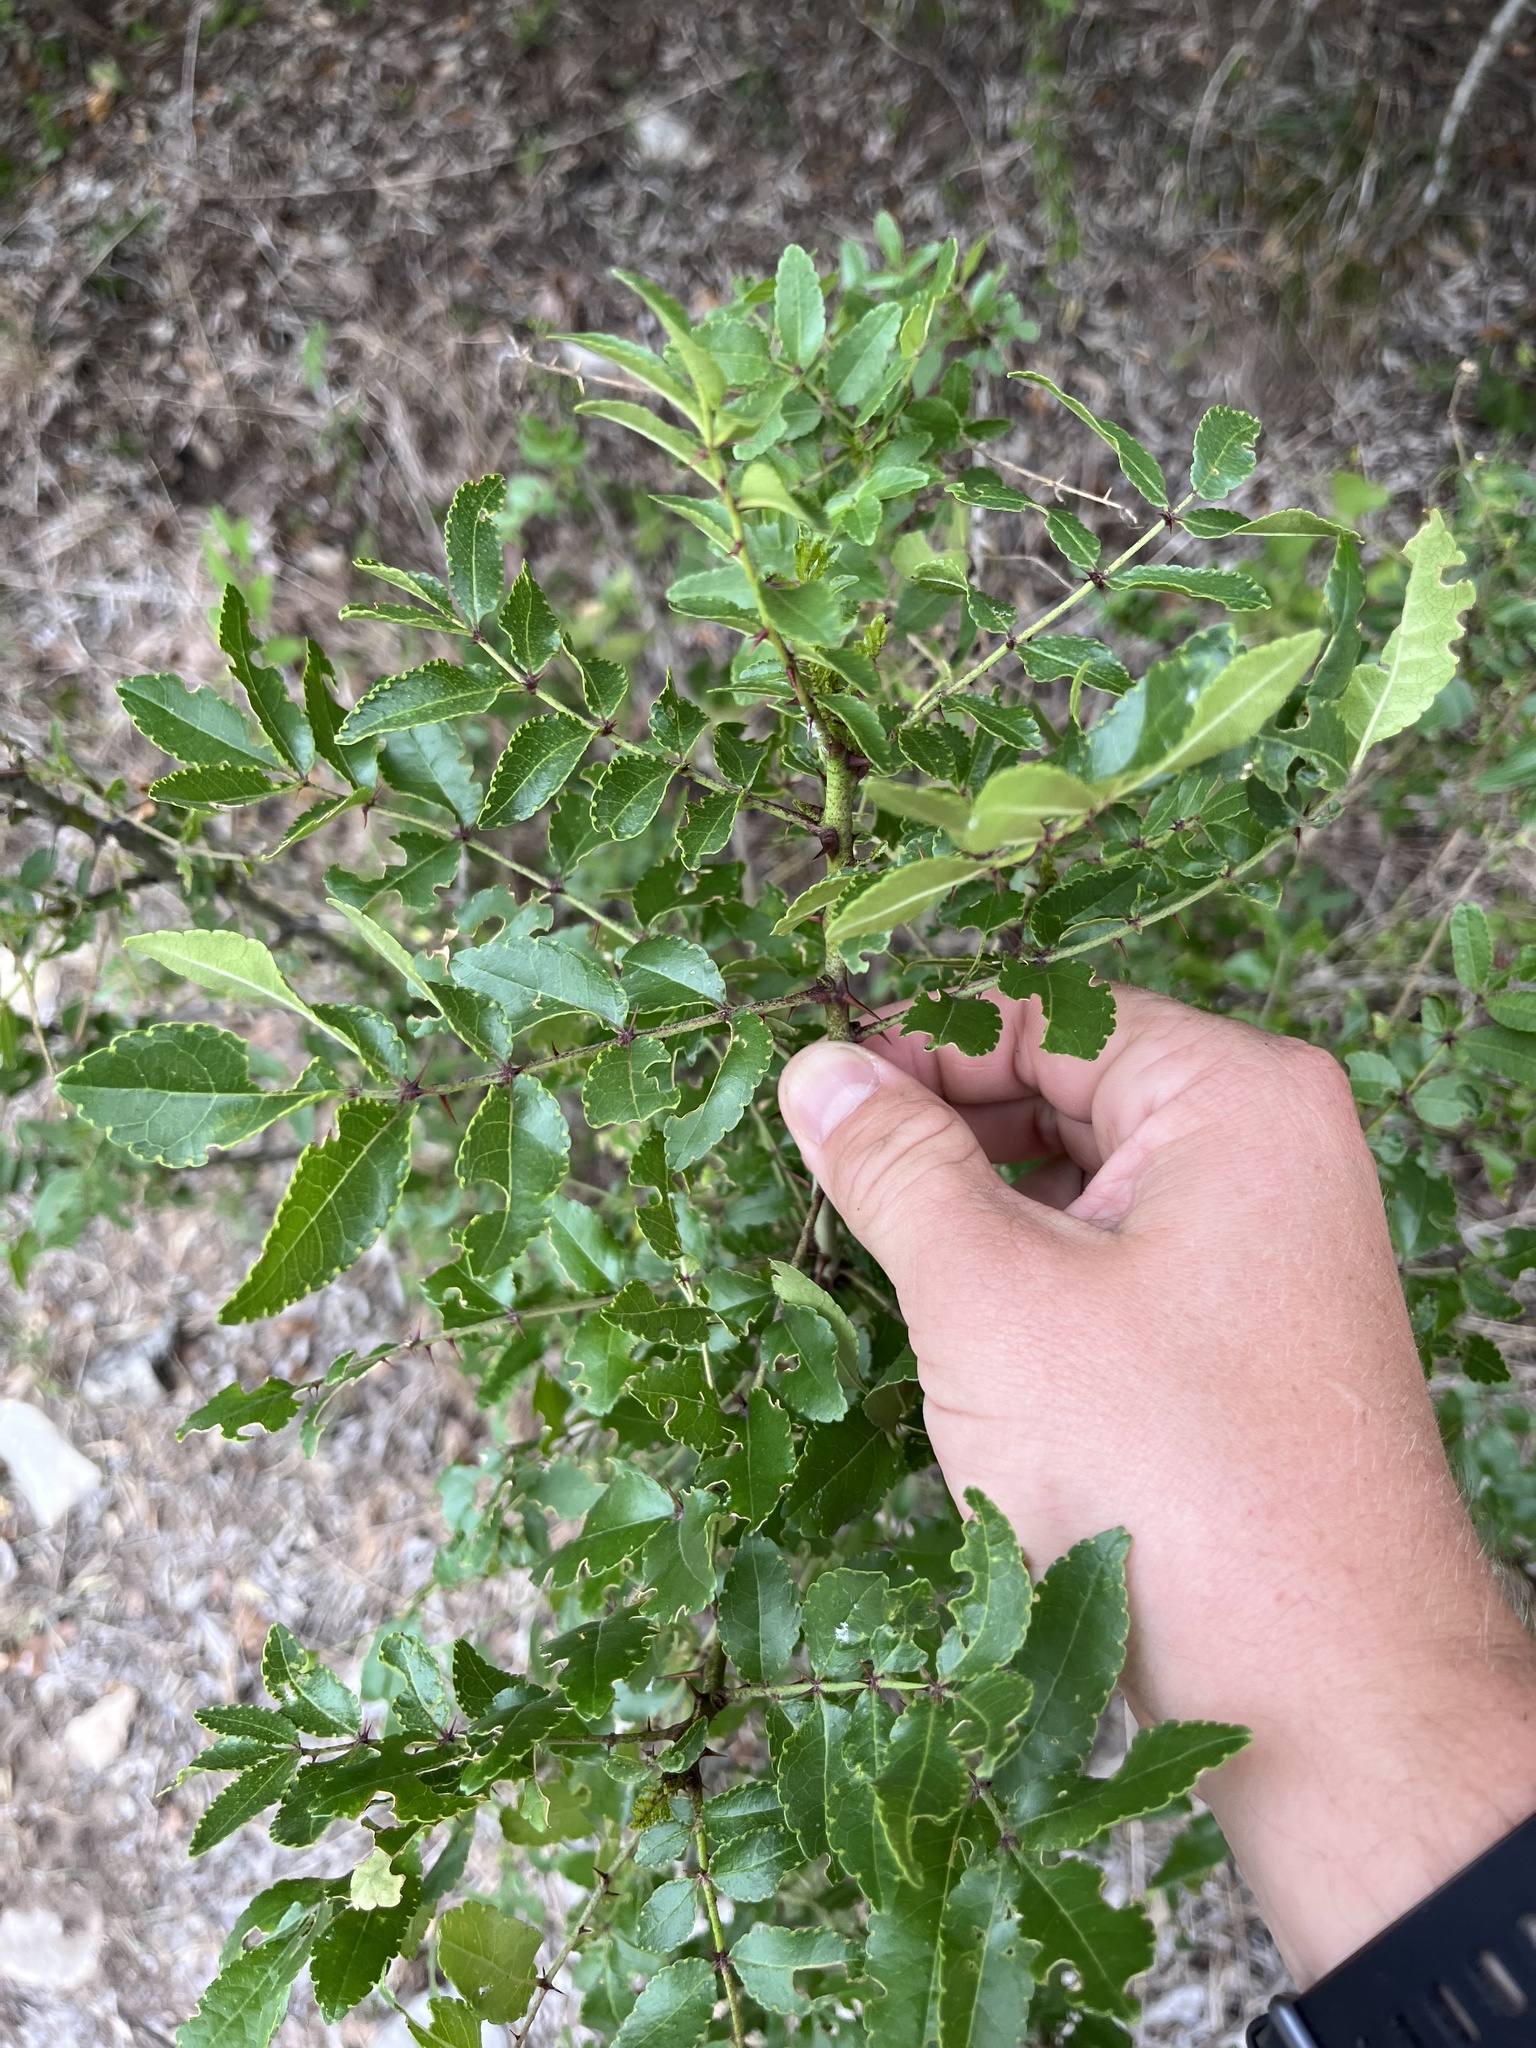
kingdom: Plantae
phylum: Tracheophyta
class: Magnoliopsida
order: Sapindales
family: Rutaceae
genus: Zanthoxylum
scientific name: Zanthoxylum clava-herculis
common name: Hercules'-club
